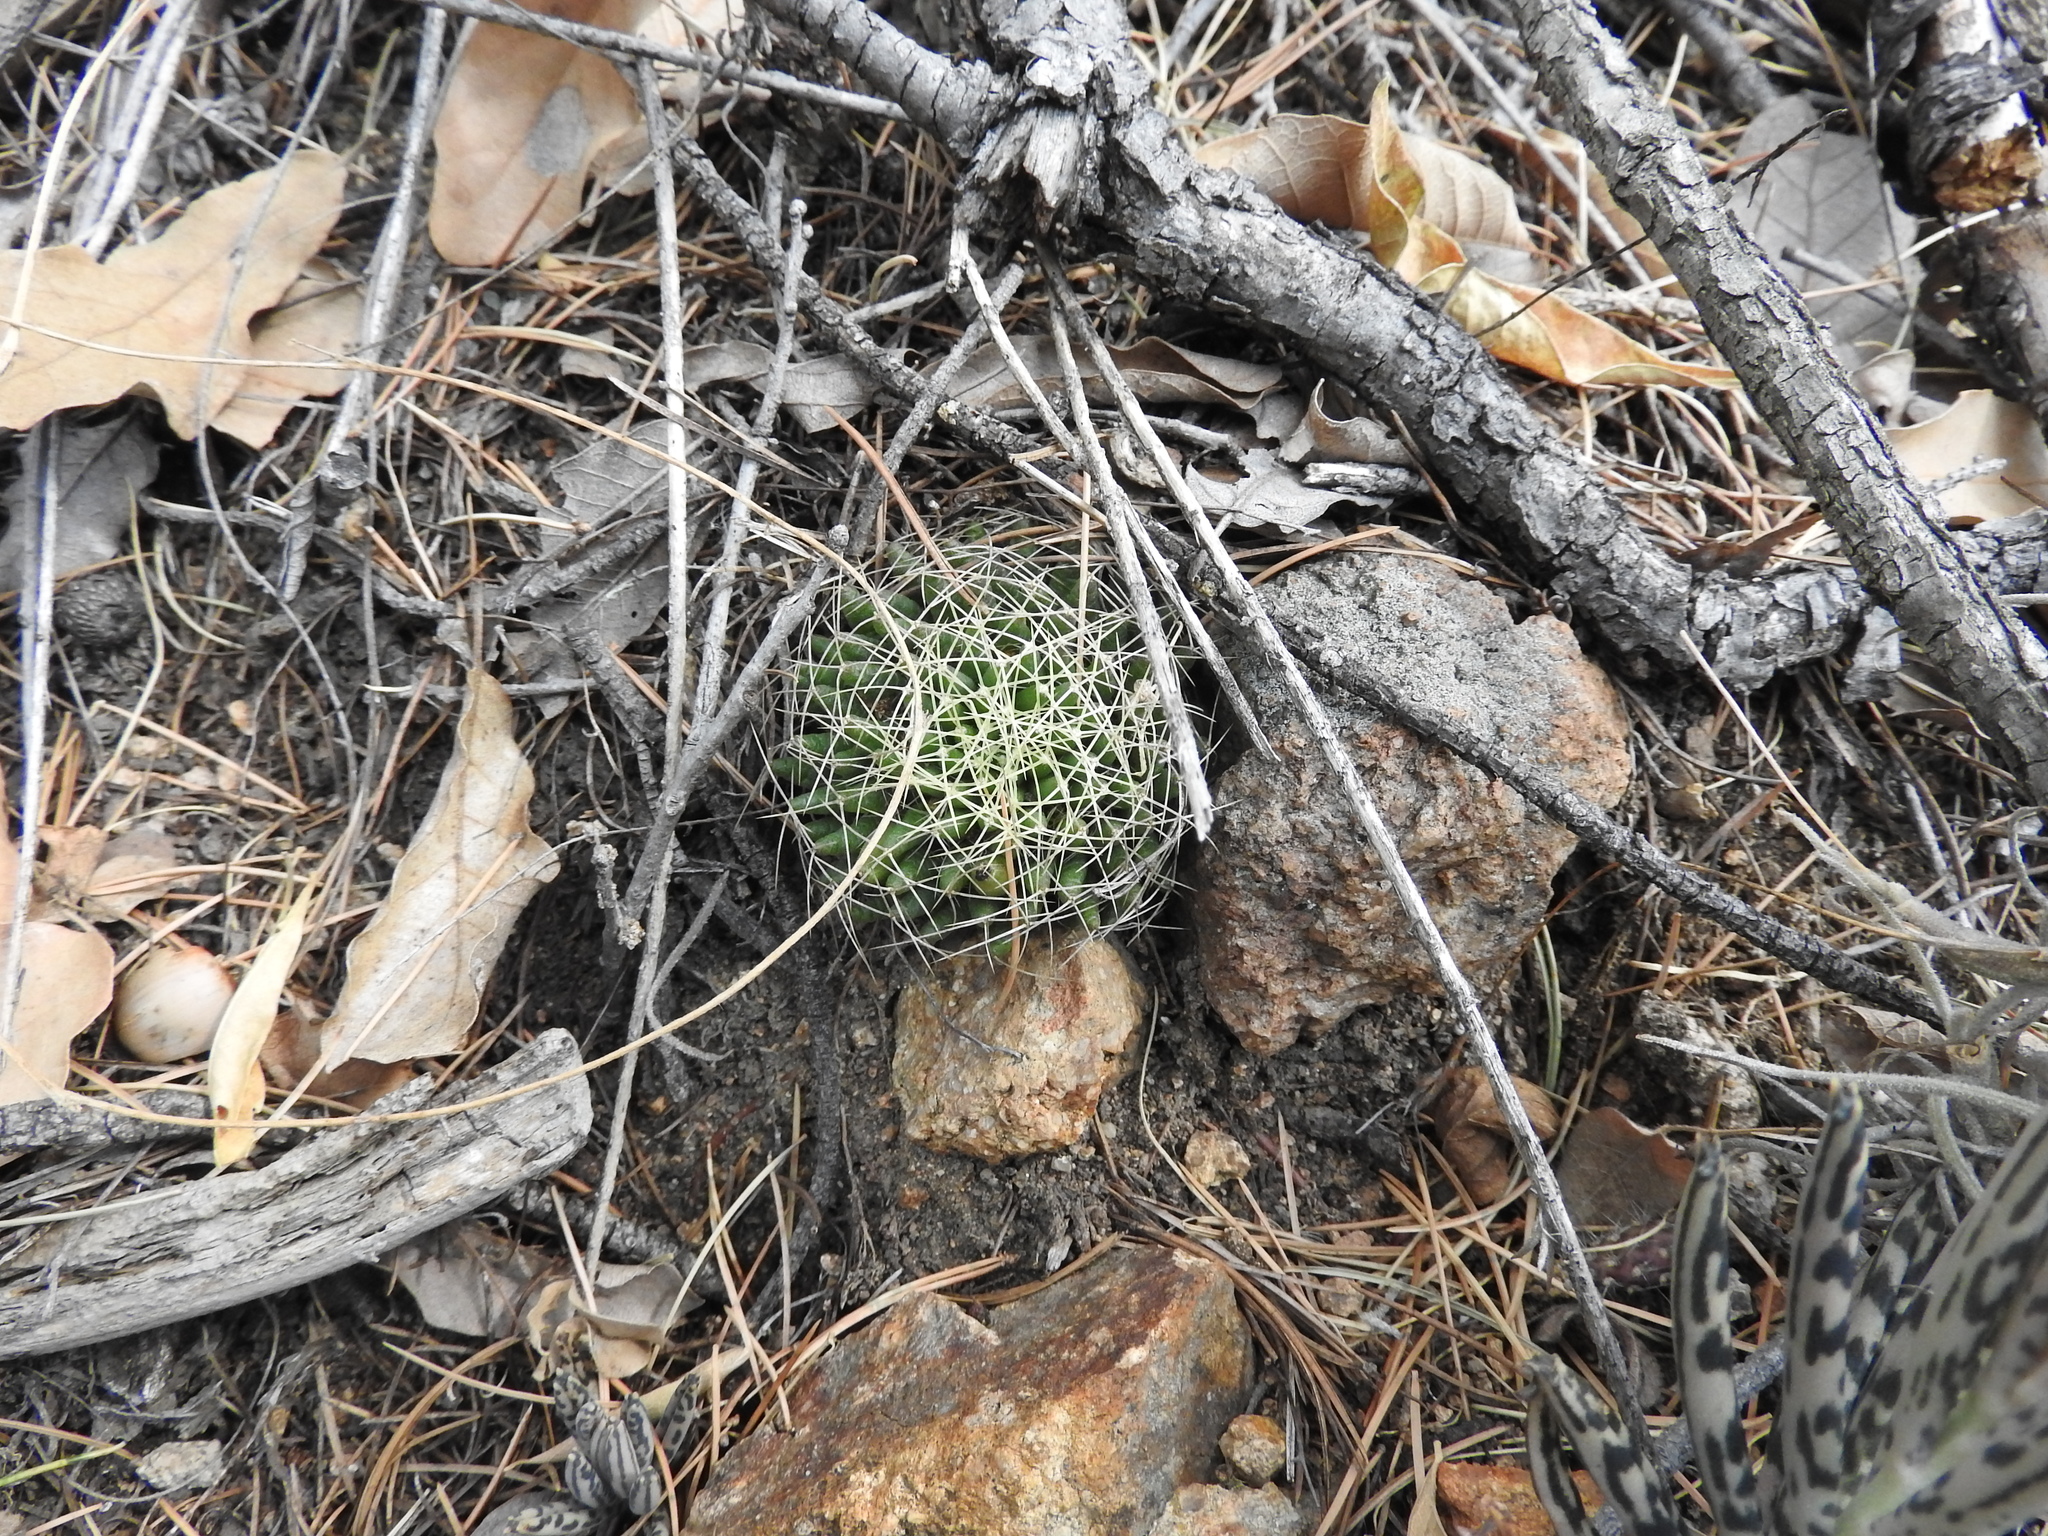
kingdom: Plantae
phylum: Tracheophyta
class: Magnoliopsida
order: Caryophyllales
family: Cactaceae
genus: Mammillaria
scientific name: Mammillaria decipiens
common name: Bird's-nest pincushion
